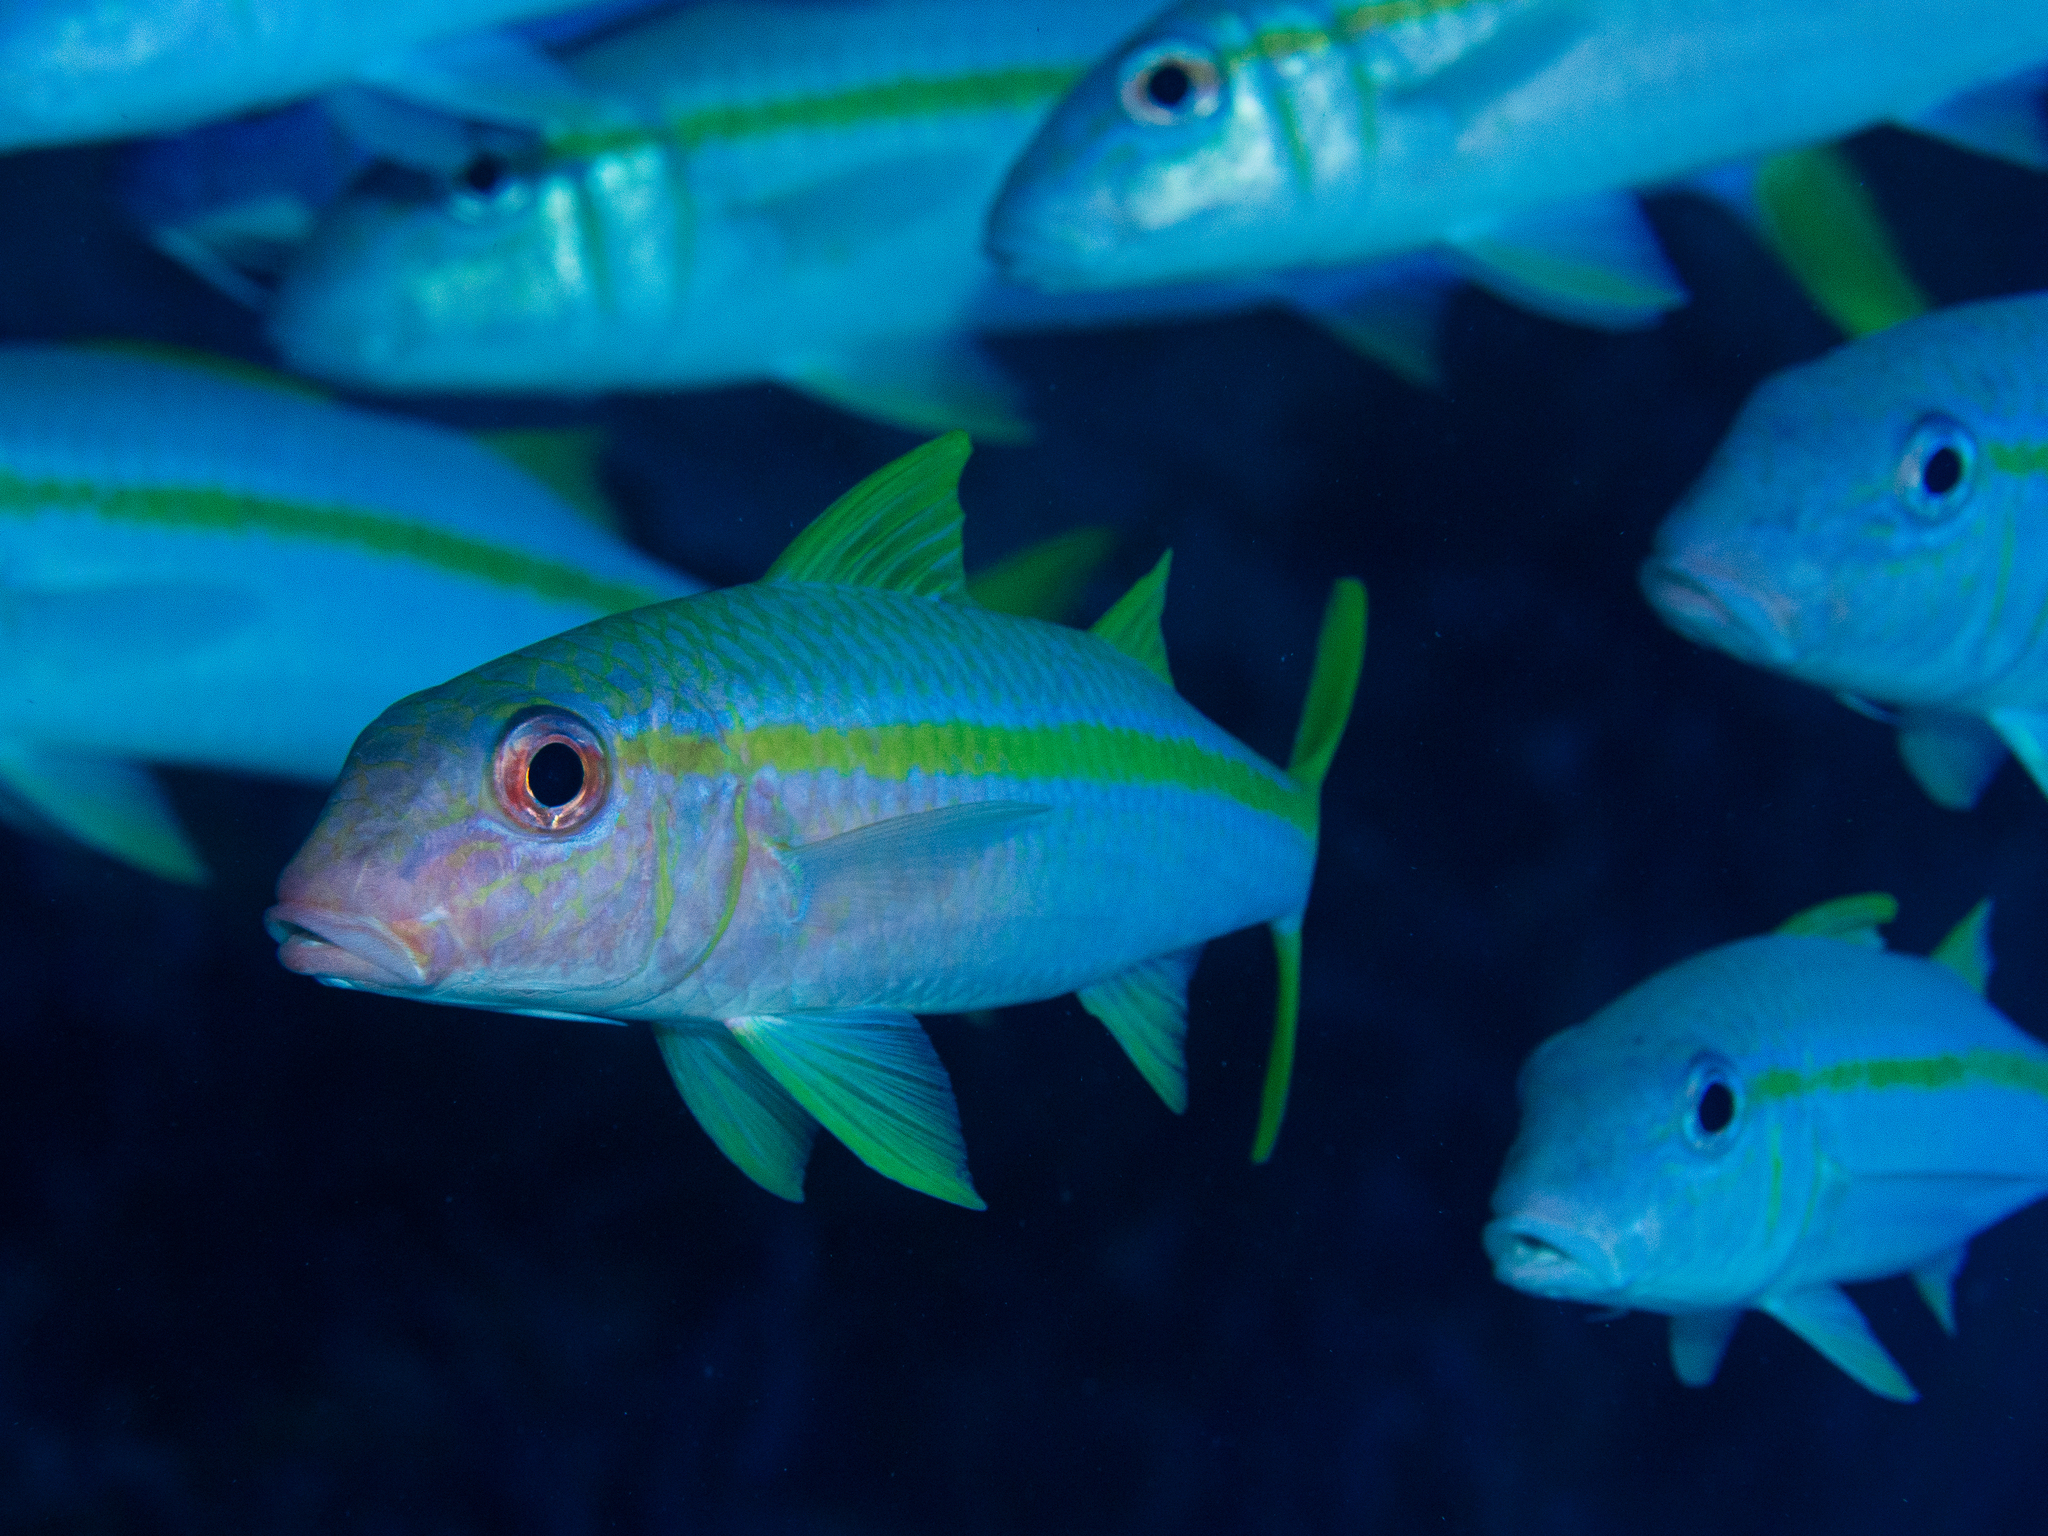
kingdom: Animalia
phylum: Chordata
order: Perciformes
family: Mullidae
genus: Mulloidichthys
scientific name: Mulloidichthys martinicus
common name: Yellow goatfish
